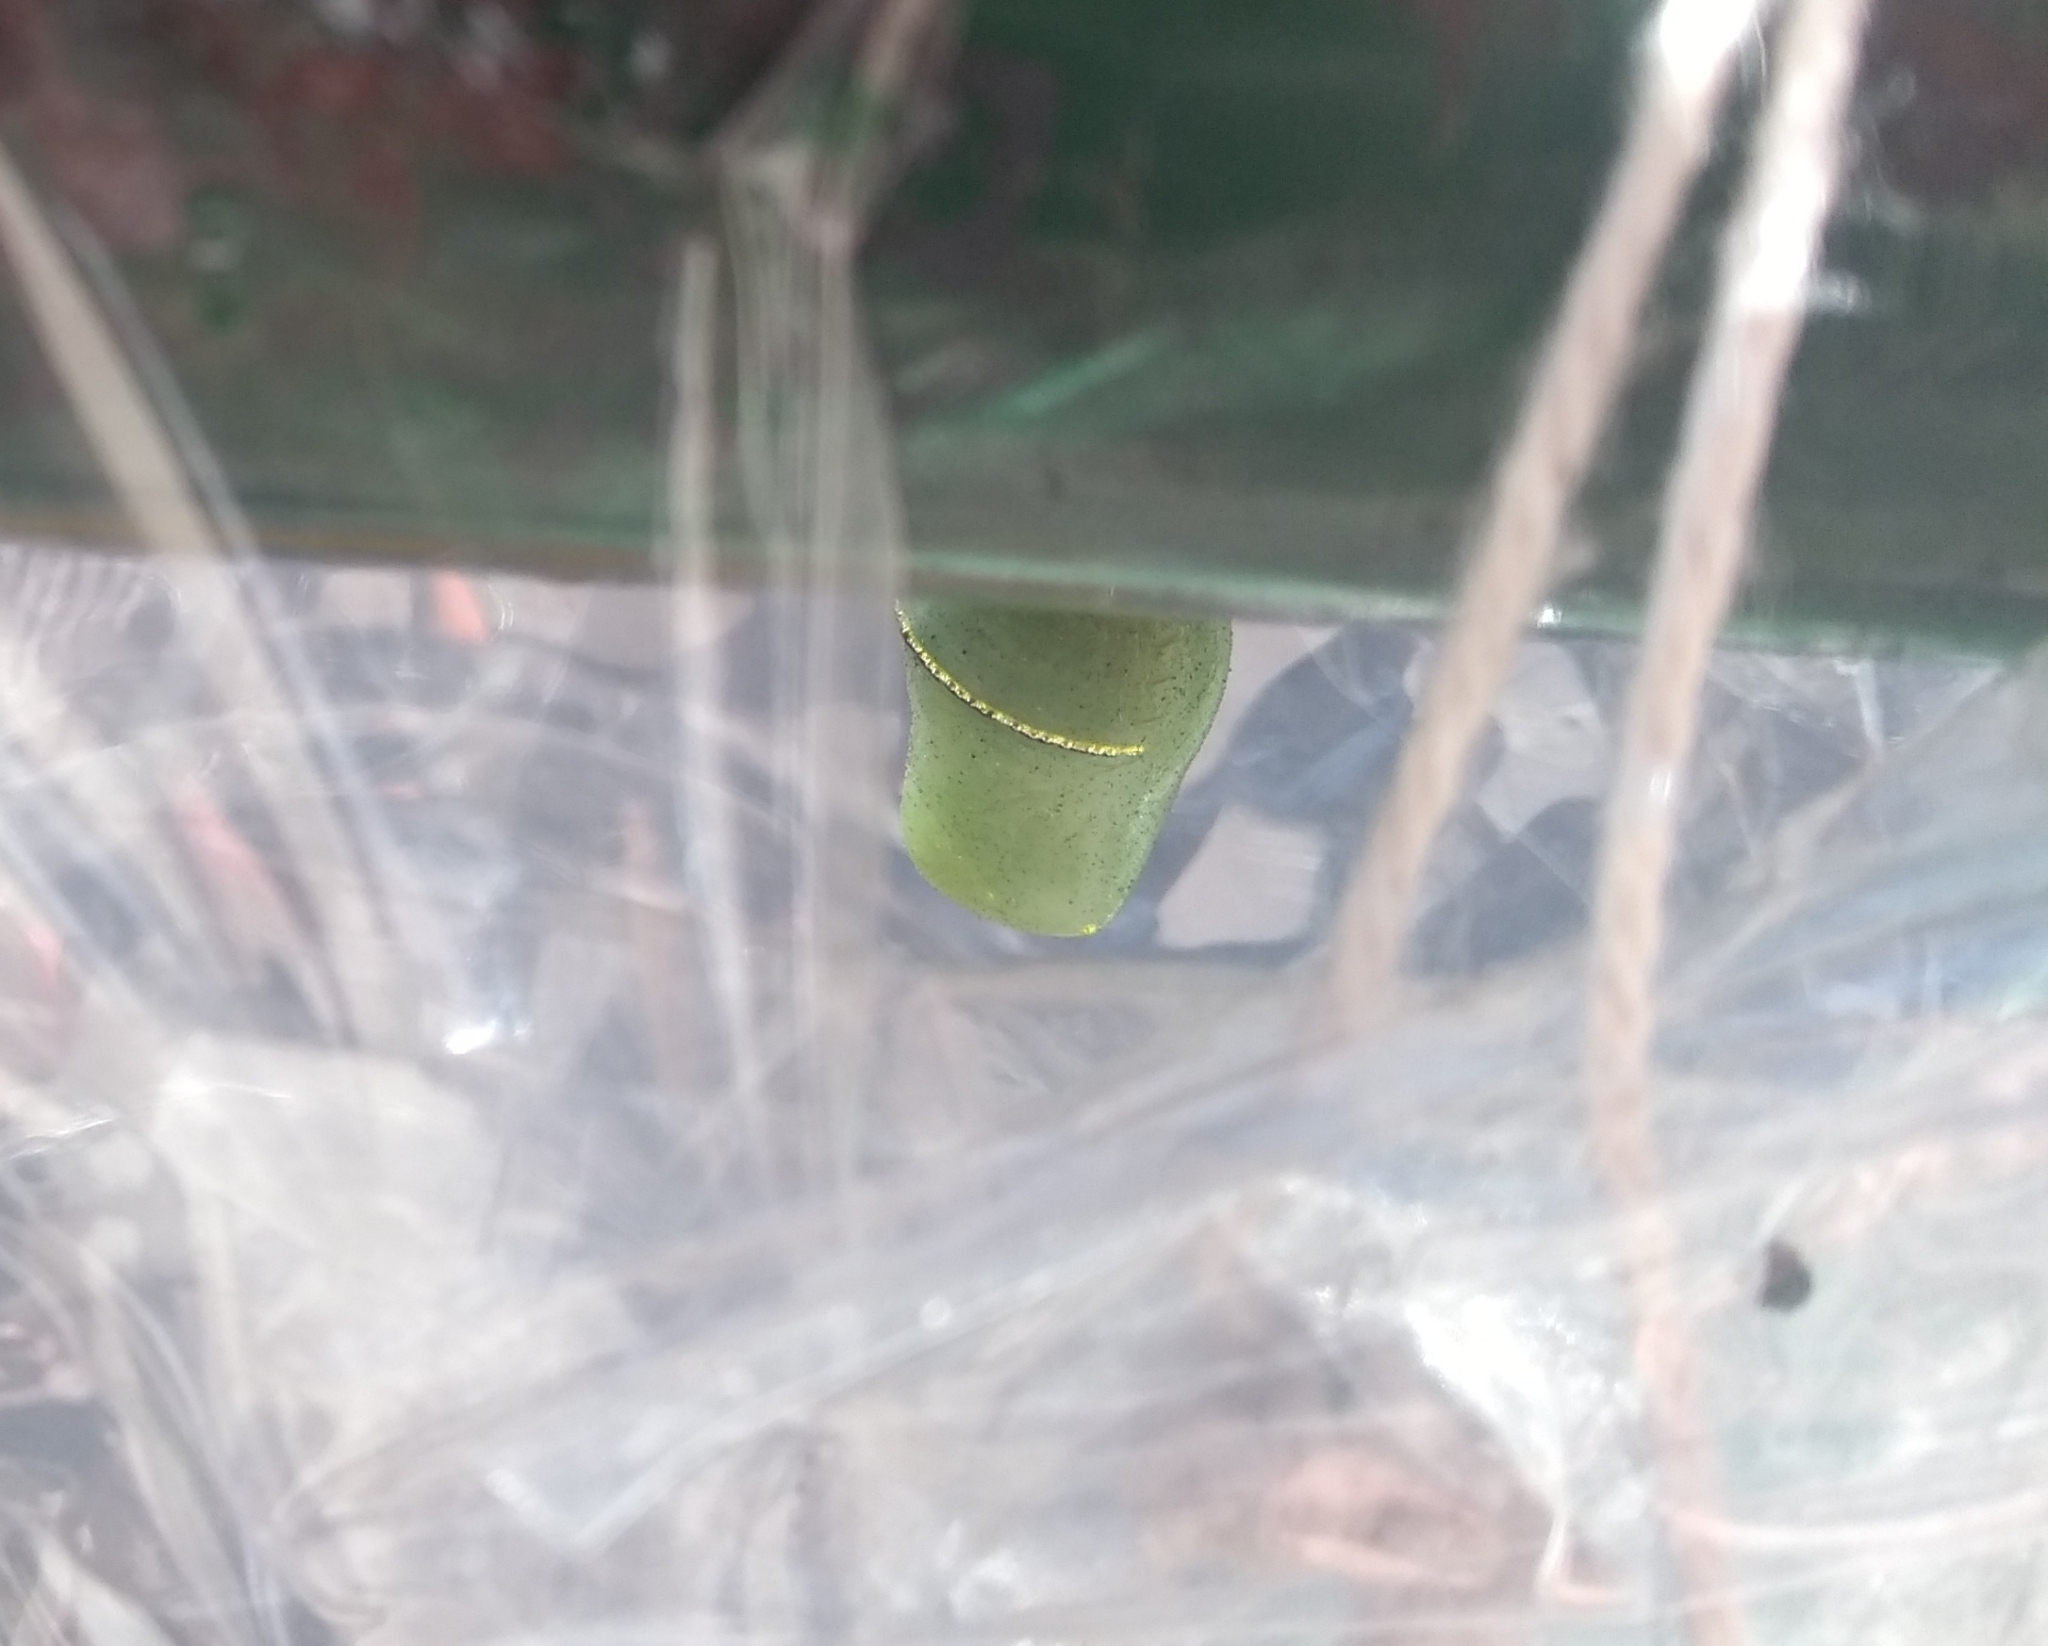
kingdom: Animalia
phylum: Arthropoda
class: Insecta
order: Lepidoptera
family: Nymphalidae
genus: Danaus
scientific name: Danaus erippus
